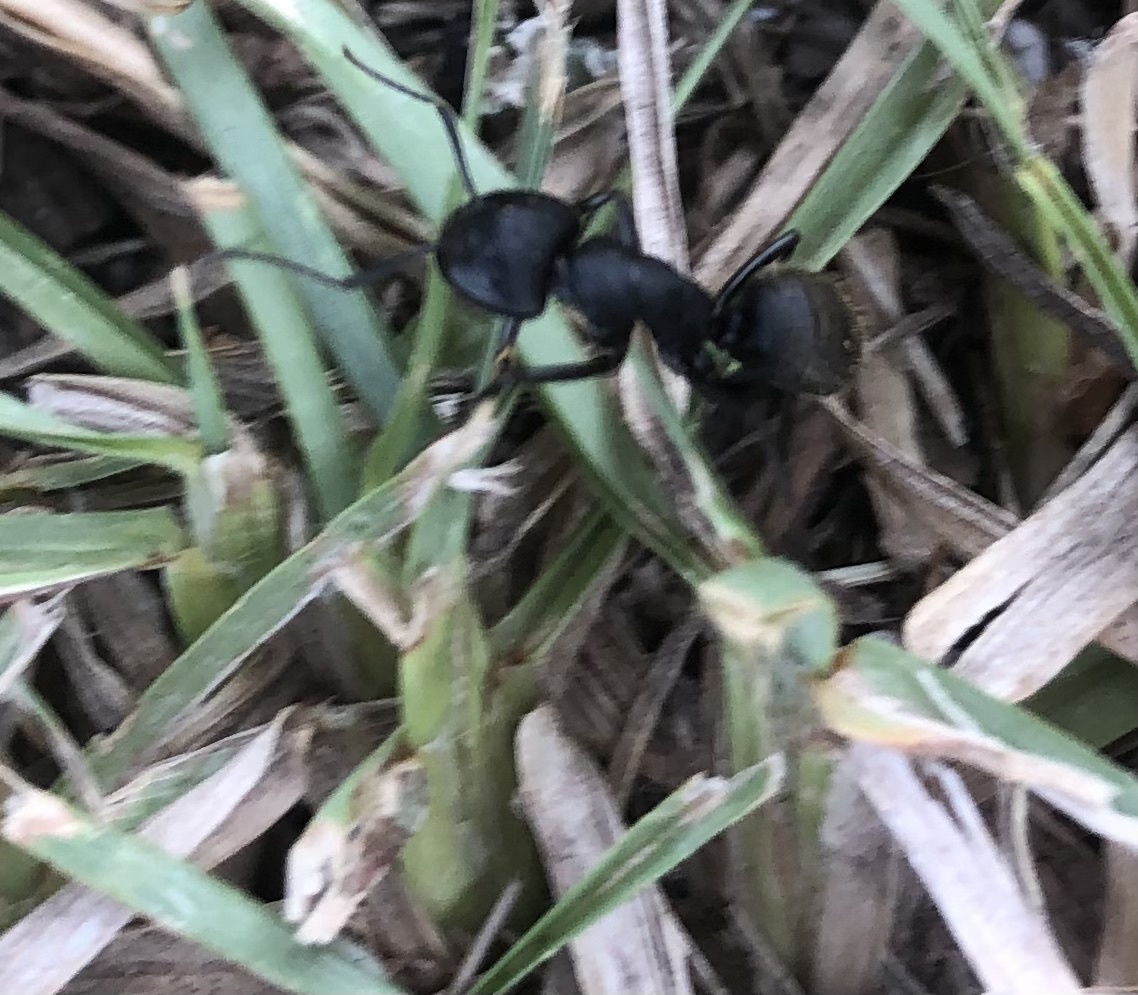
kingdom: Animalia
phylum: Arthropoda
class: Insecta
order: Hymenoptera
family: Formicidae
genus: Camponotus
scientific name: Camponotus pennsylvanicus
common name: Black carpenter ant
